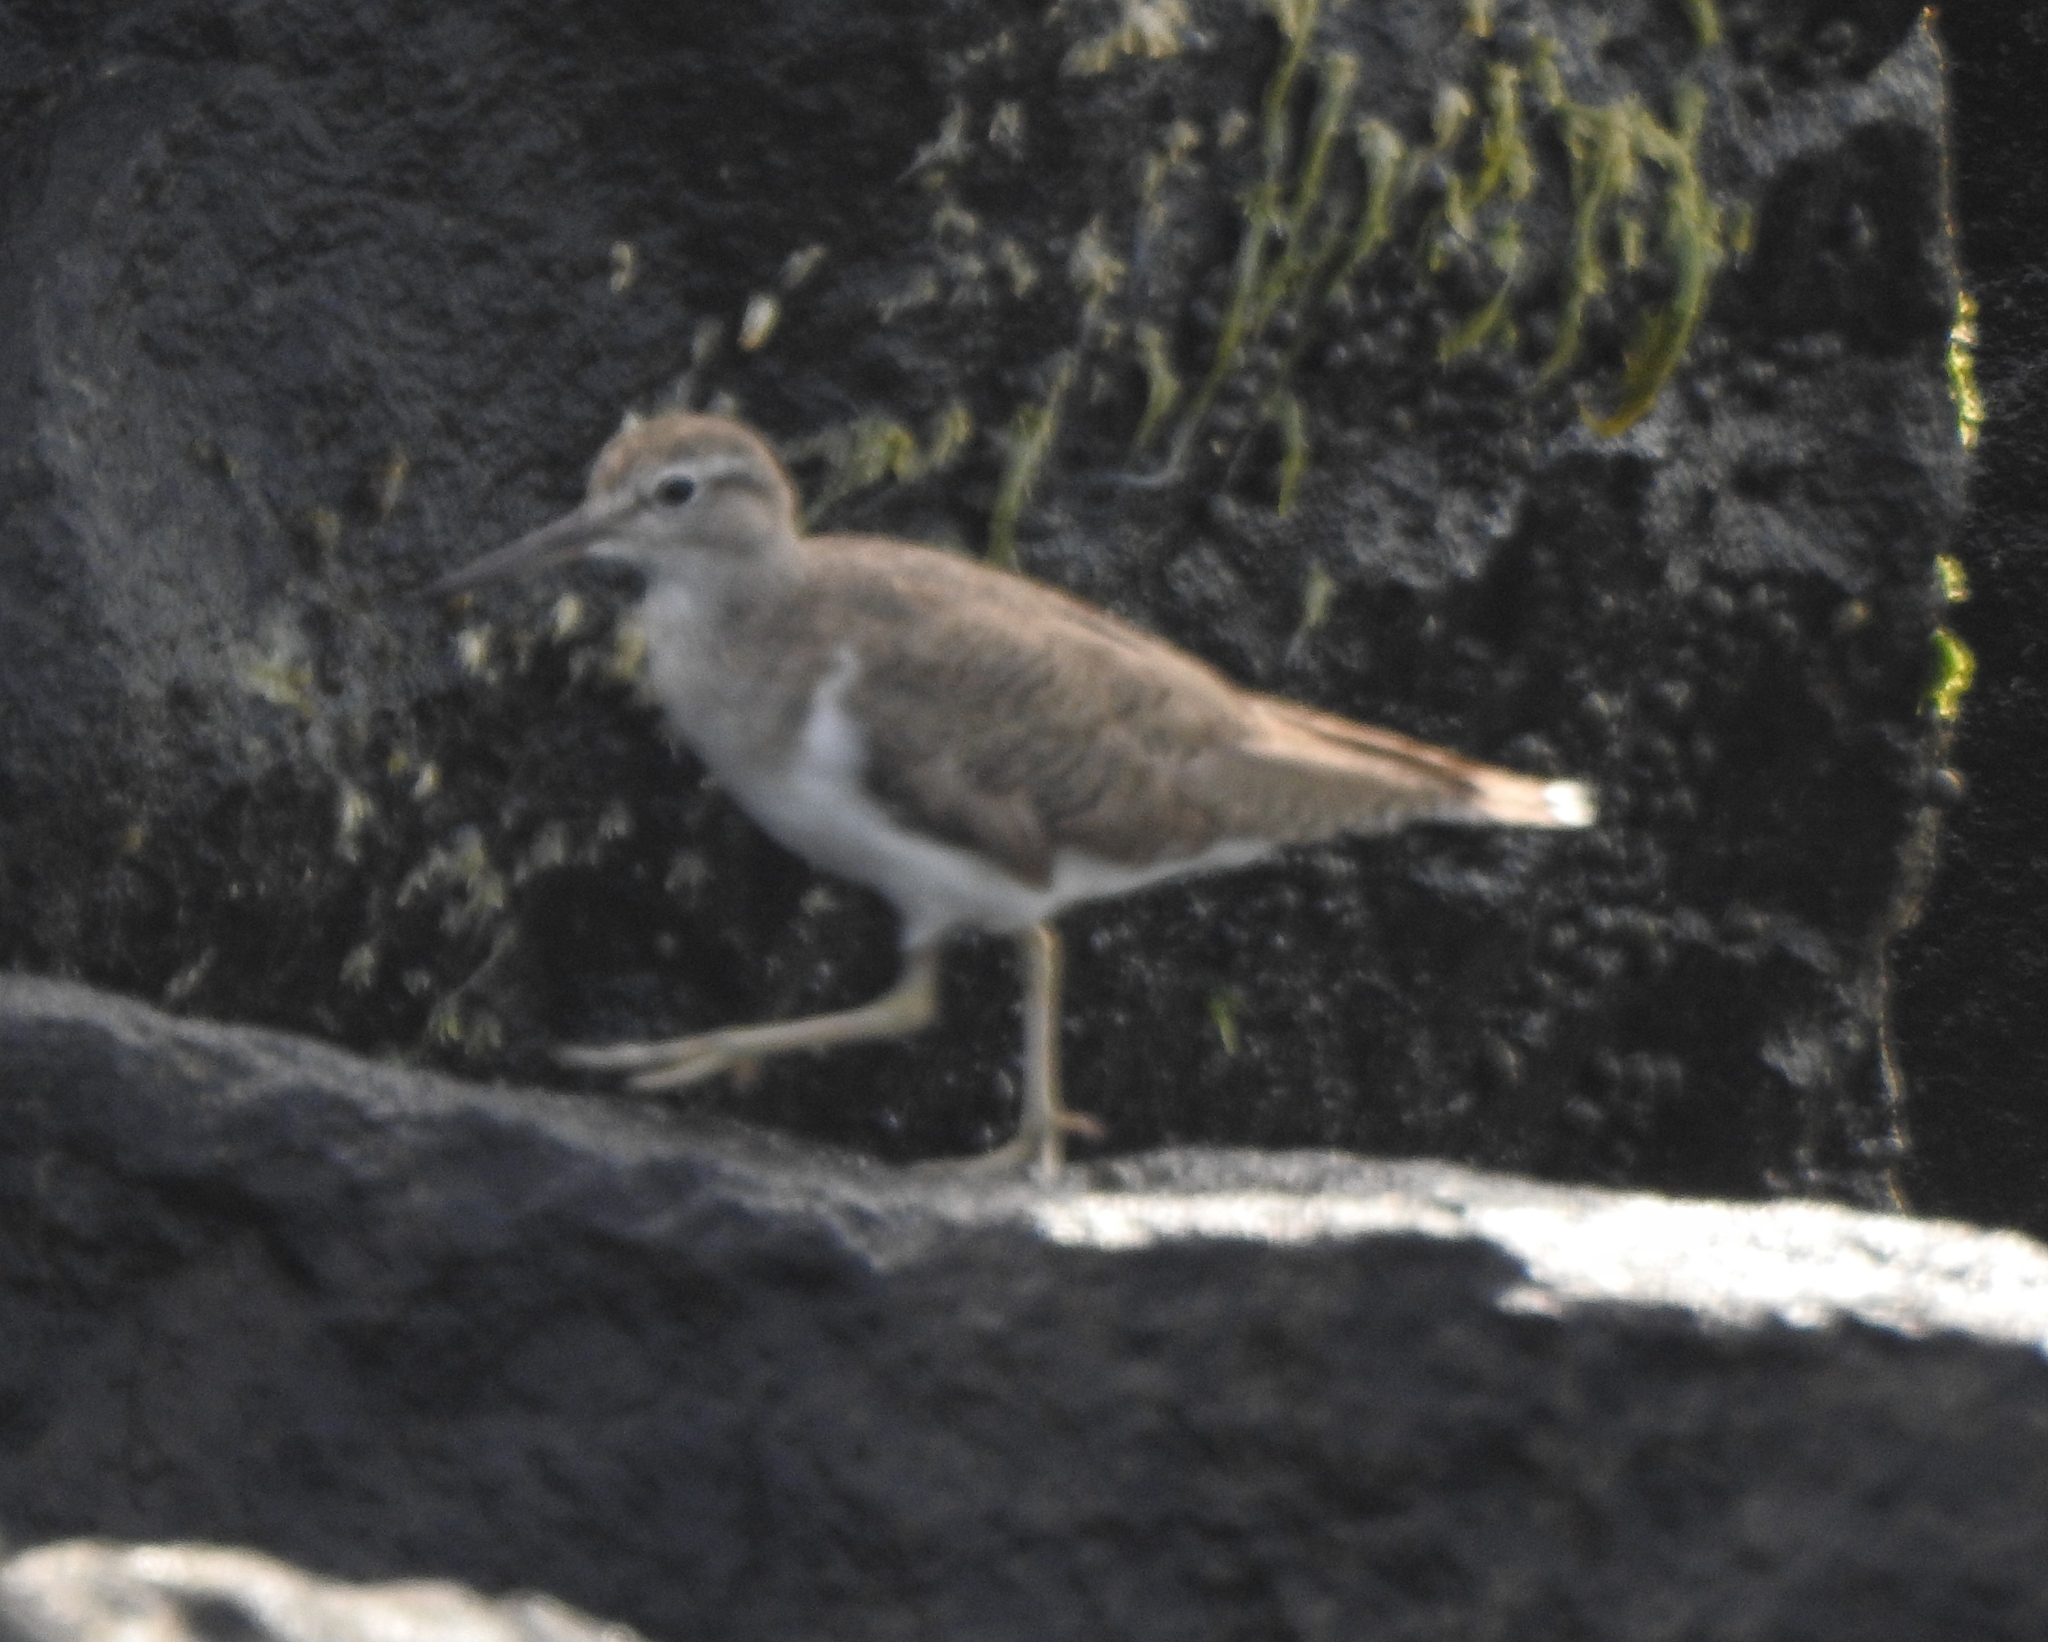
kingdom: Animalia
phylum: Chordata
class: Aves
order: Charadriiformes
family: Scolopacidae
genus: Actitis
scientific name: Actitis hypoleucos
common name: Common sandpiper
